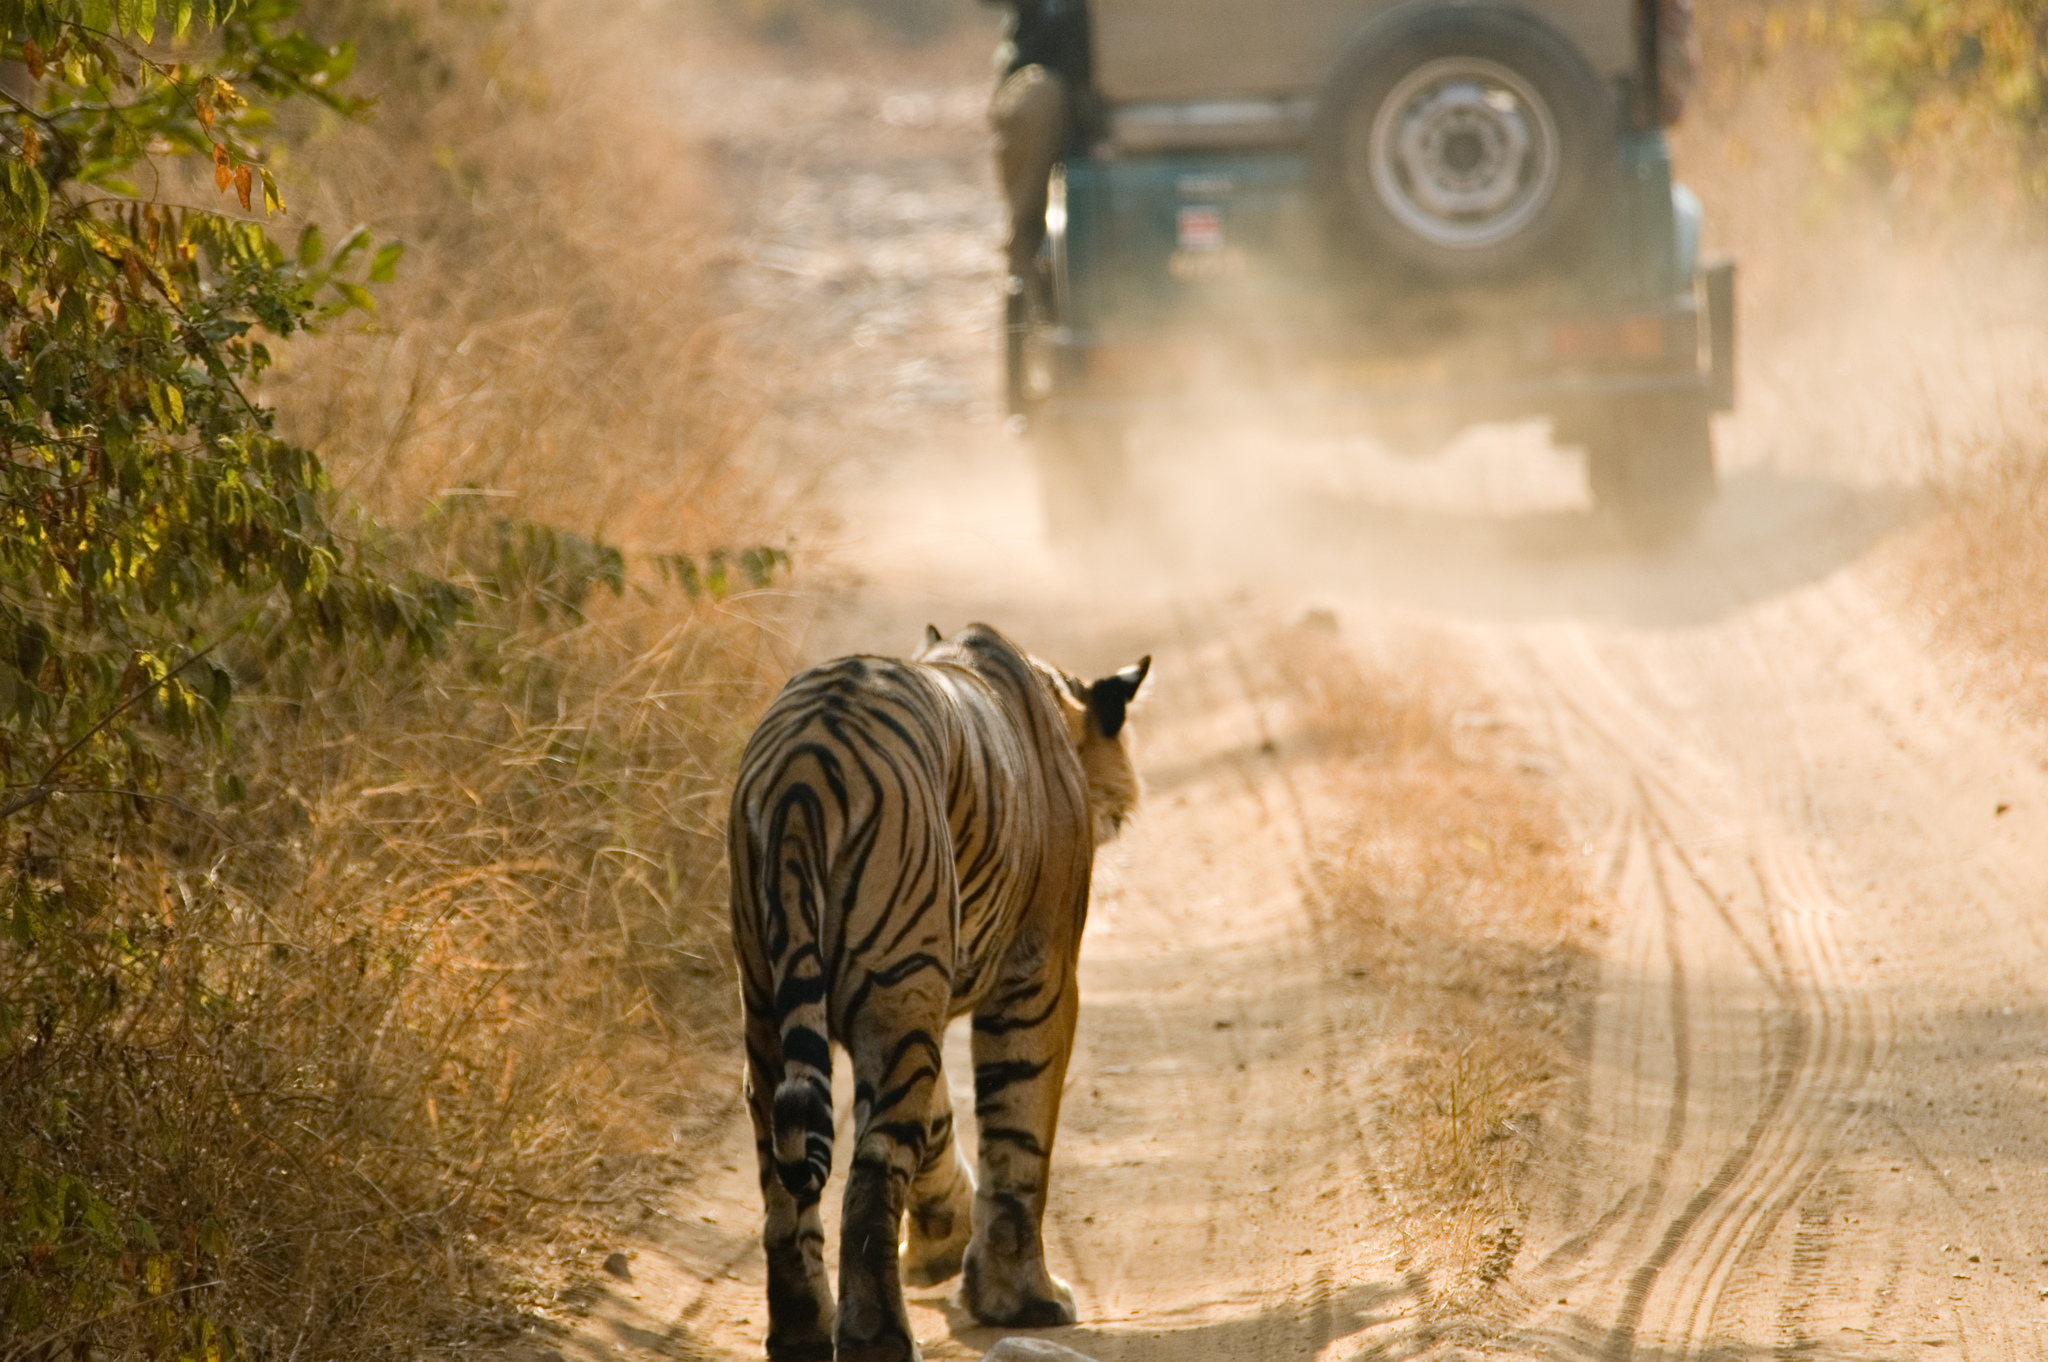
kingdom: Animalia
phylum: Chordata
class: Mammalia
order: Carnivora
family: Felidae
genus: Panthera
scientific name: Panthera tigris
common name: Tiger
